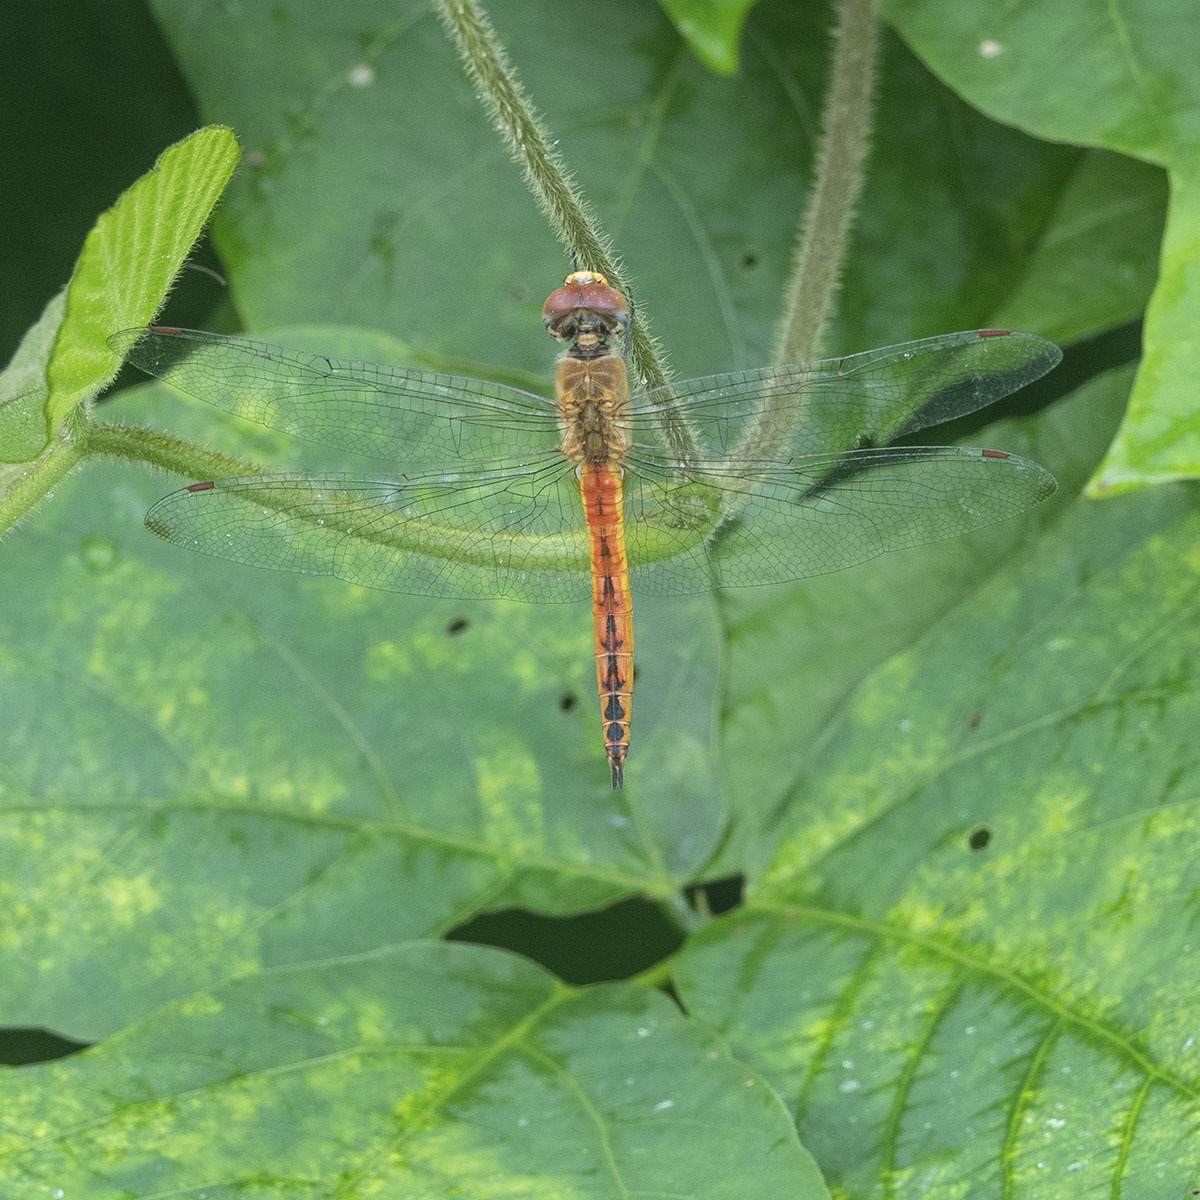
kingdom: Animalia
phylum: Arthropoda
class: Insecta
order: Odonata
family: Libellulidae
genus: Pantala
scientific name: Pantala flavescens
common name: Wandering glider
